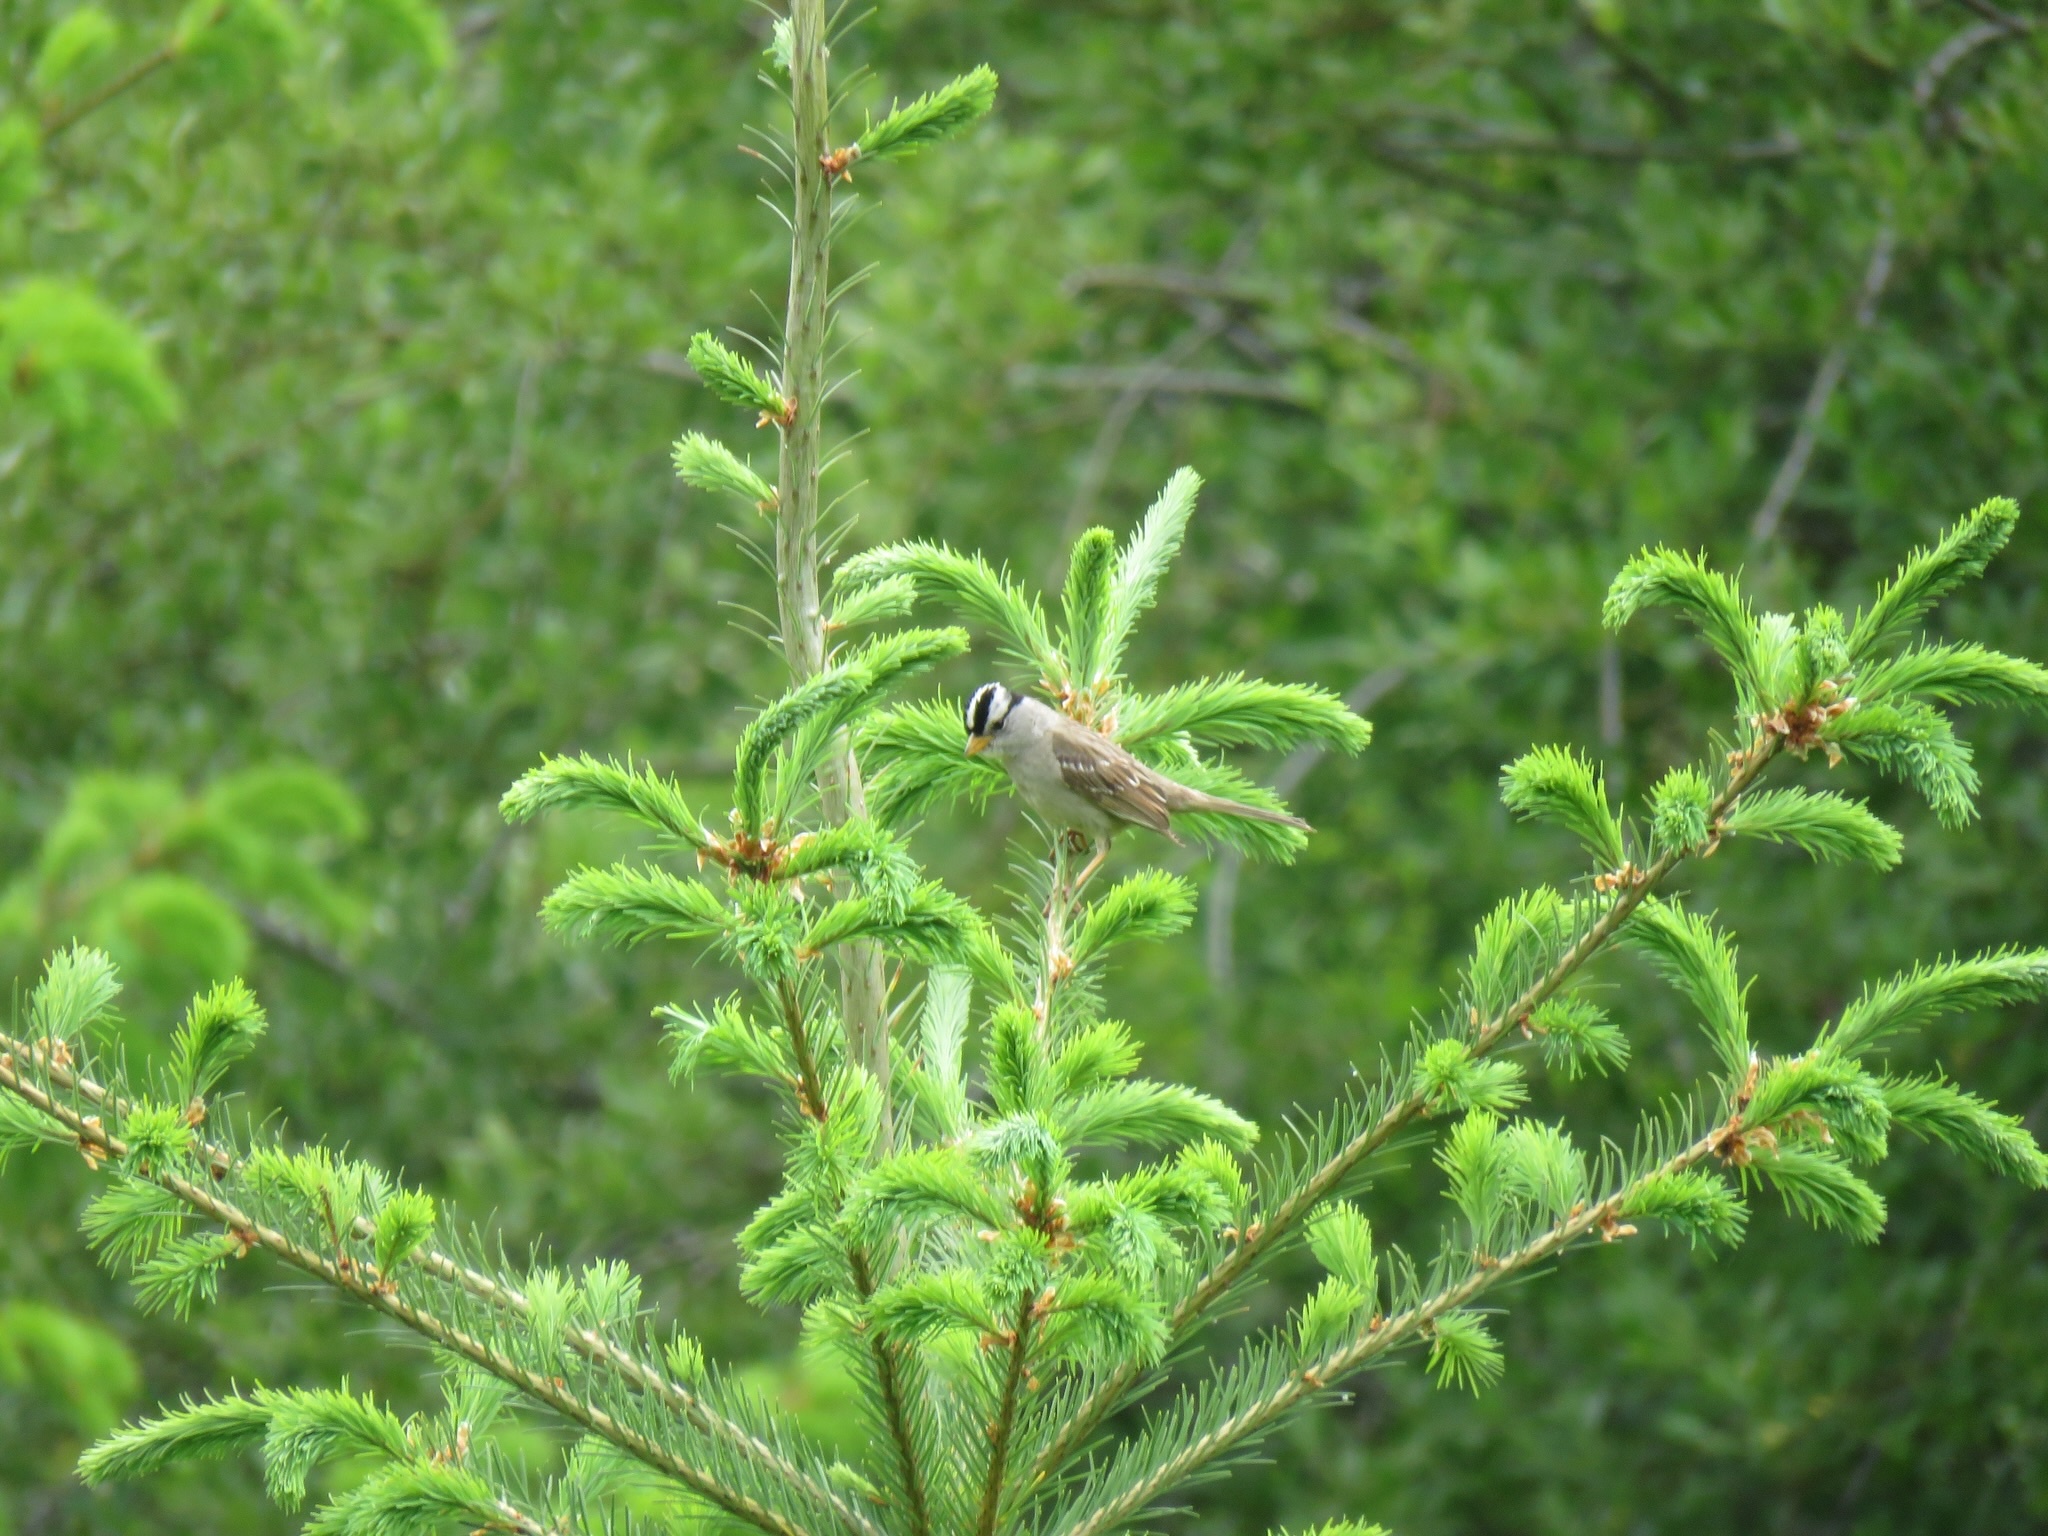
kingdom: Animalia
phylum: Chordata
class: Aves
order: Passeriformes
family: Passerellidae
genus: Zonotrichia
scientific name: Zonotrichia leucophrys
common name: White-crowned sparrow
